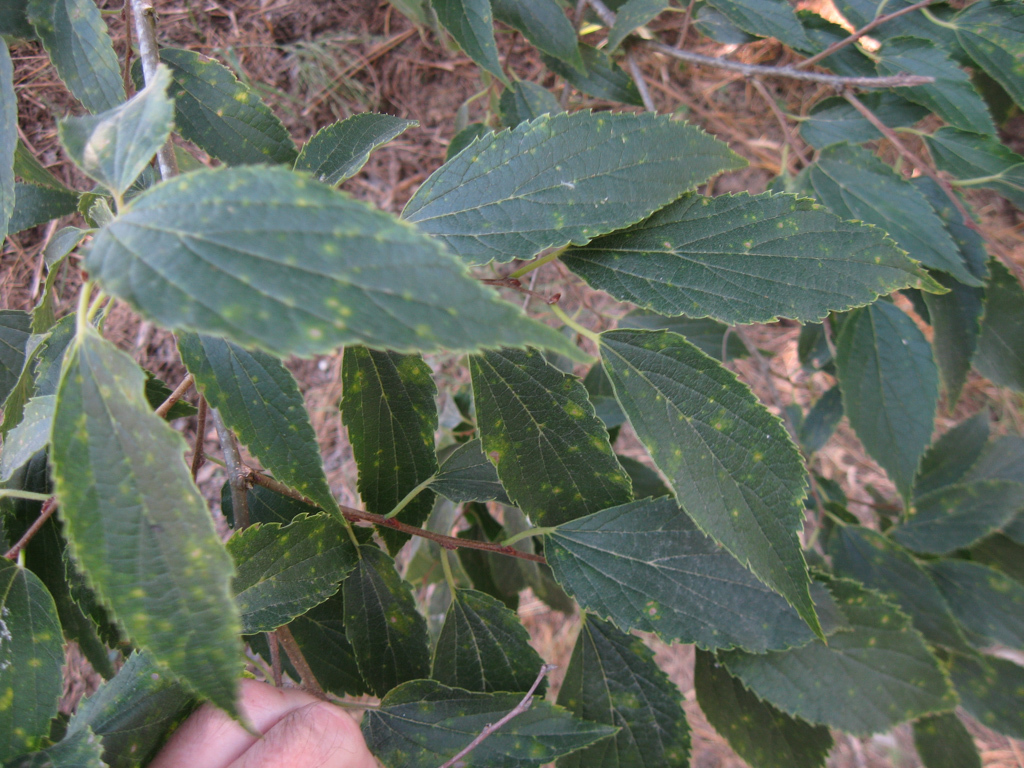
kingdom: Plantae
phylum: Tracheophyta
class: Magnoliopsida
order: Rosales
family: Cannabaceae
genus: Celtis
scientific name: Celtis australis
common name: European hackberry
